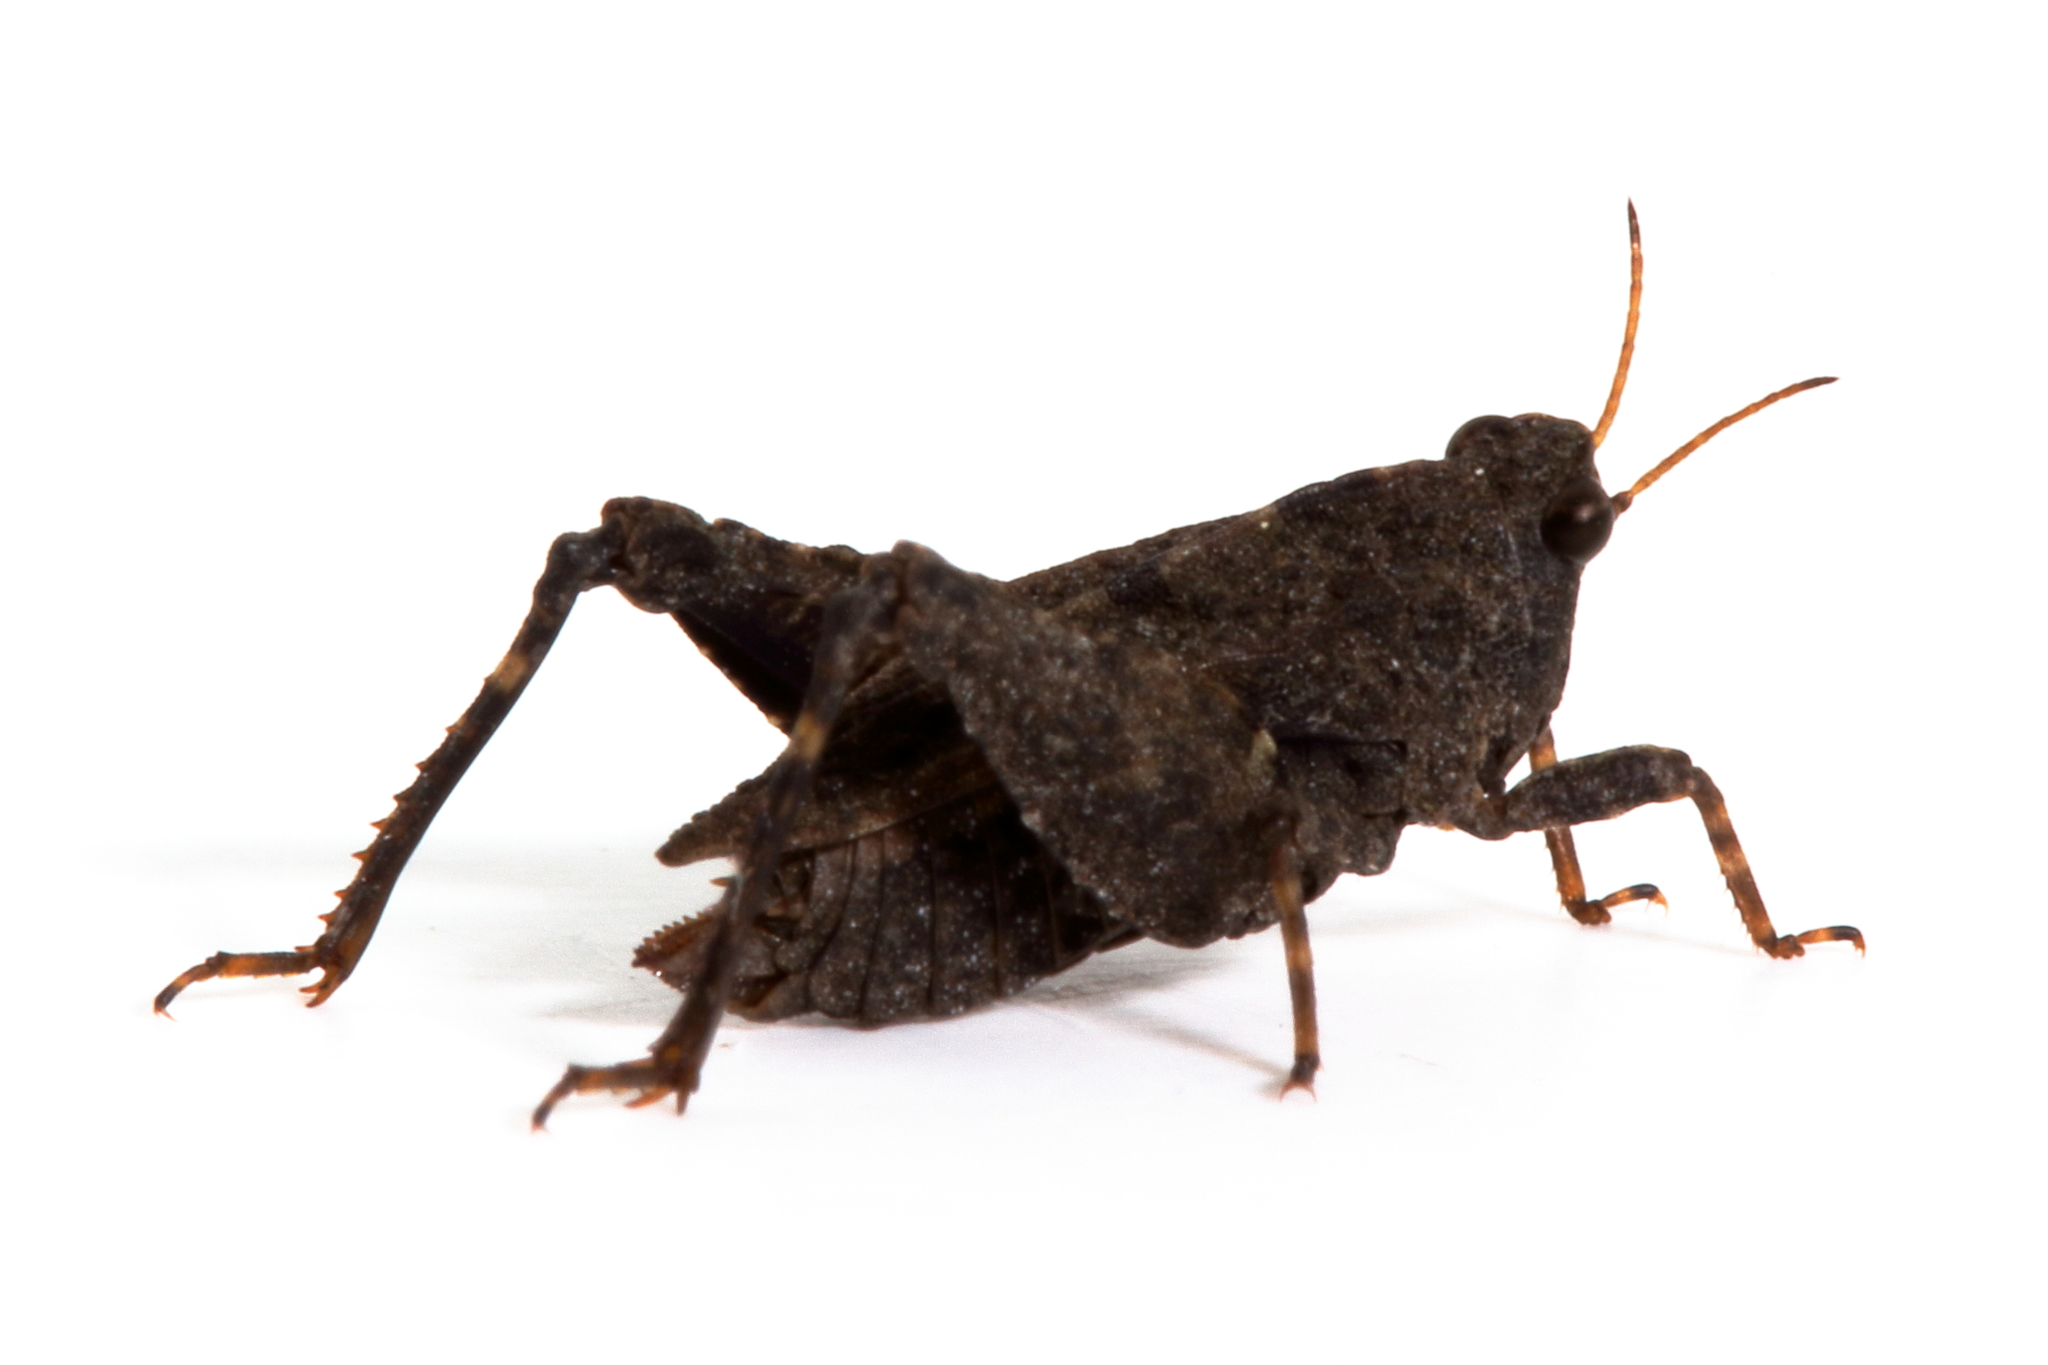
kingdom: Animalia
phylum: Arthropoda
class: Insecta
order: Orthoptera
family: Tetrigidae
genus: Tetrix
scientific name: Tetrix irrupta
